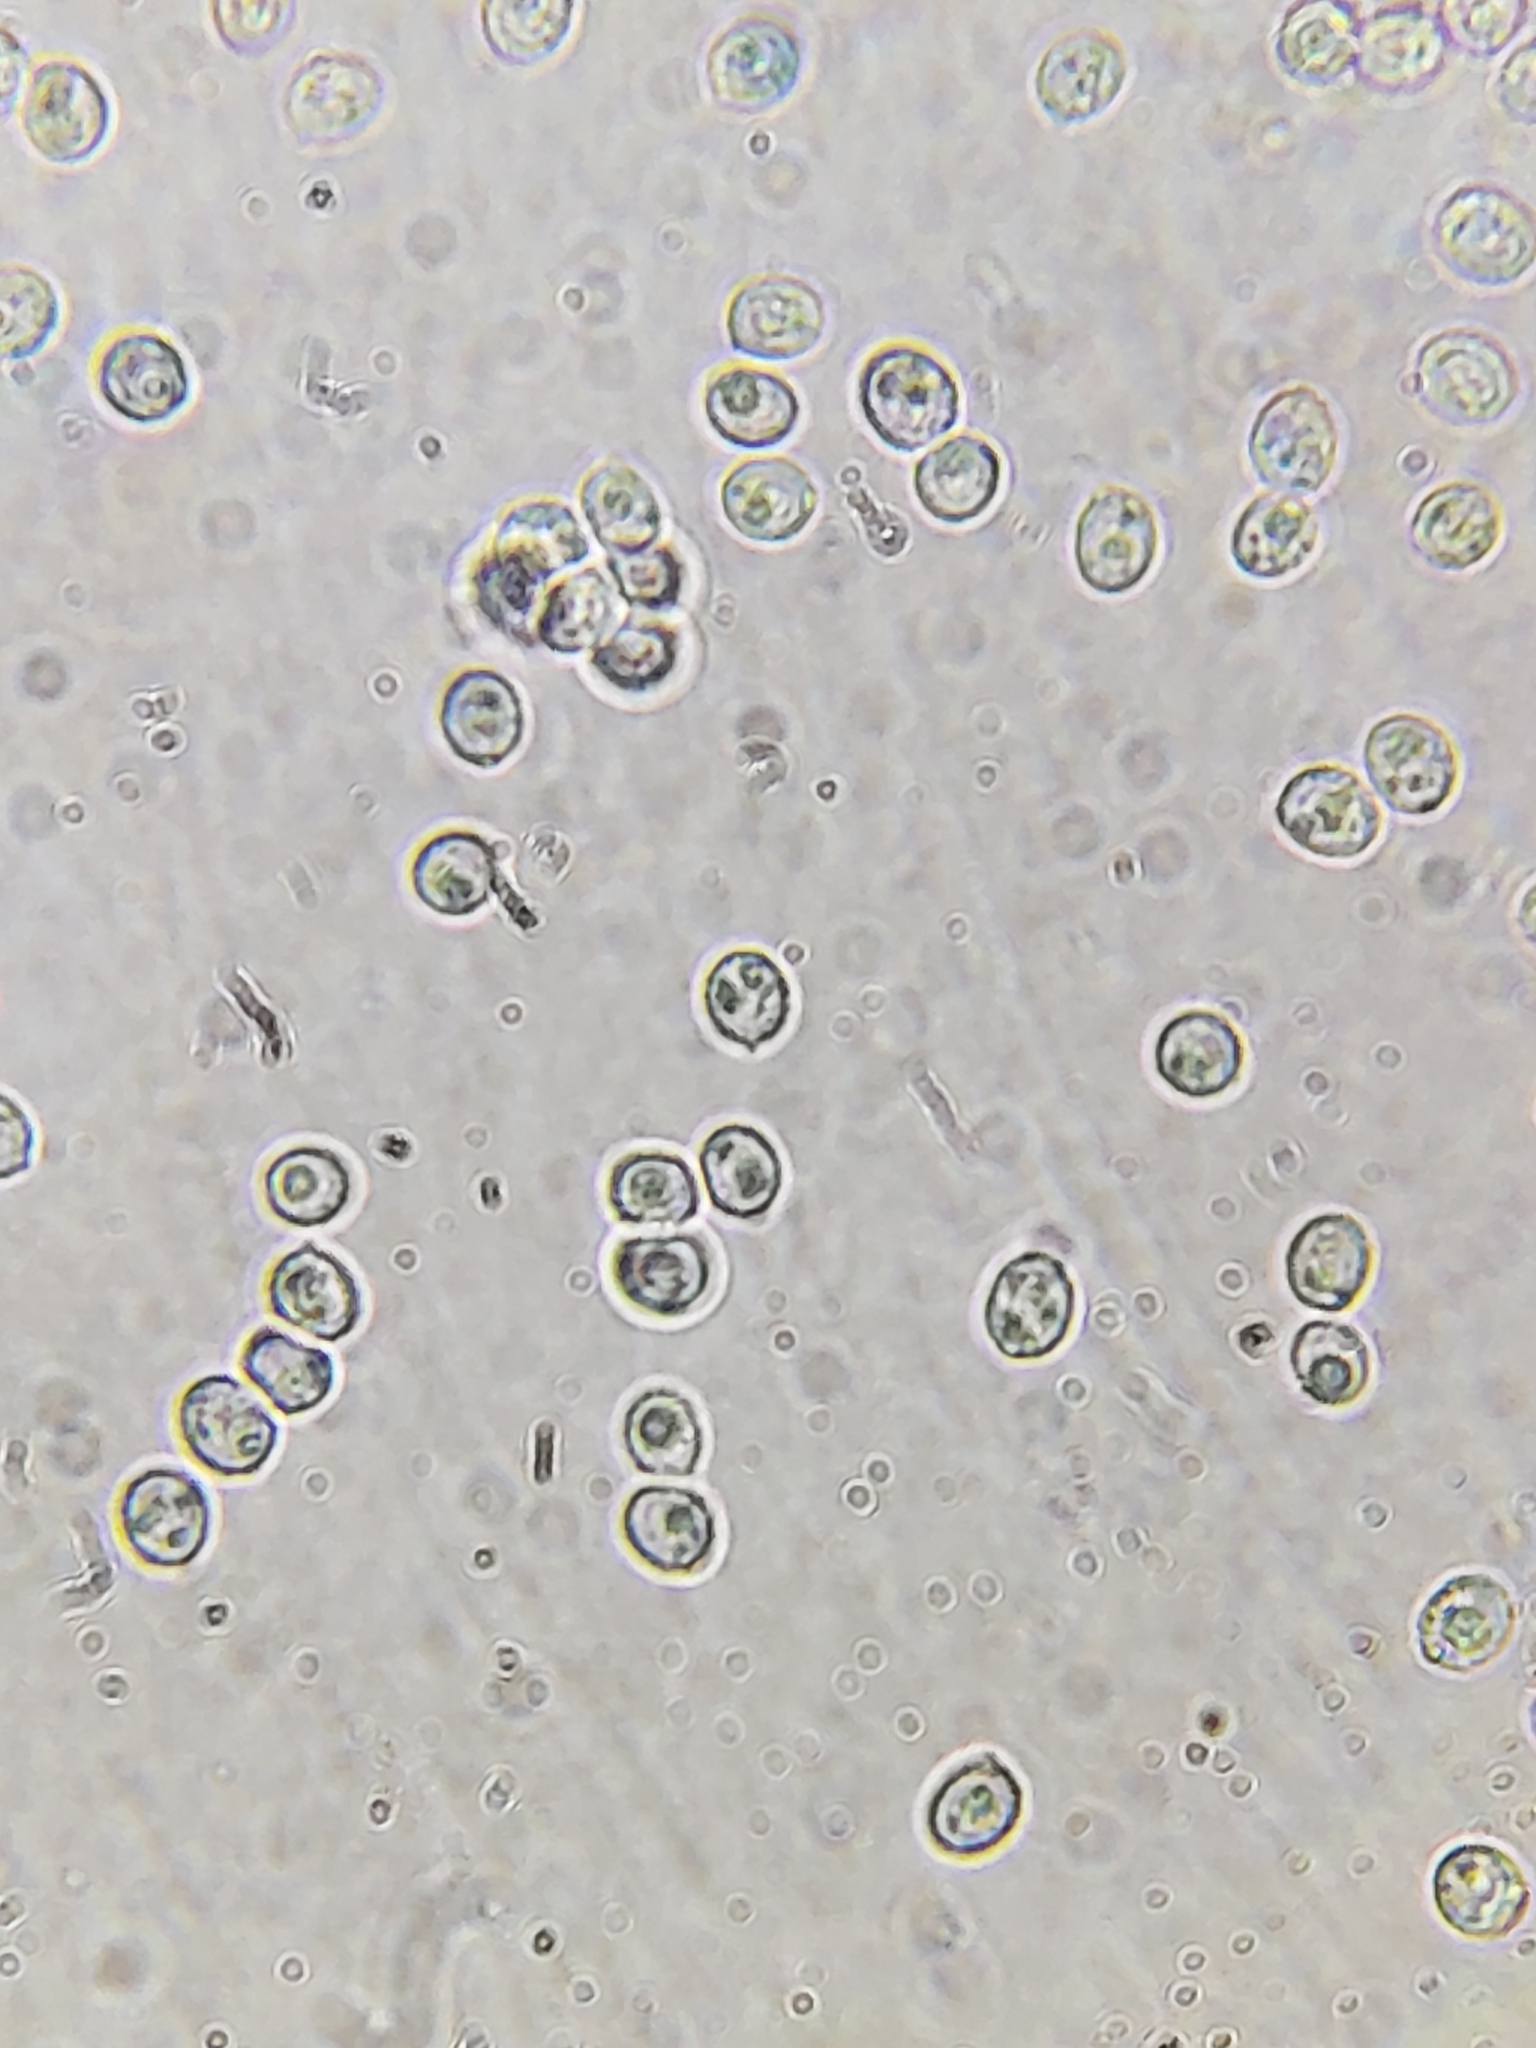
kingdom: Fungi
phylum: Basidiomycota
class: Agaricomycetes
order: Russulales
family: Auriscalpiaceae
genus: Lentinellus
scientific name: Lentinellus micheneri
